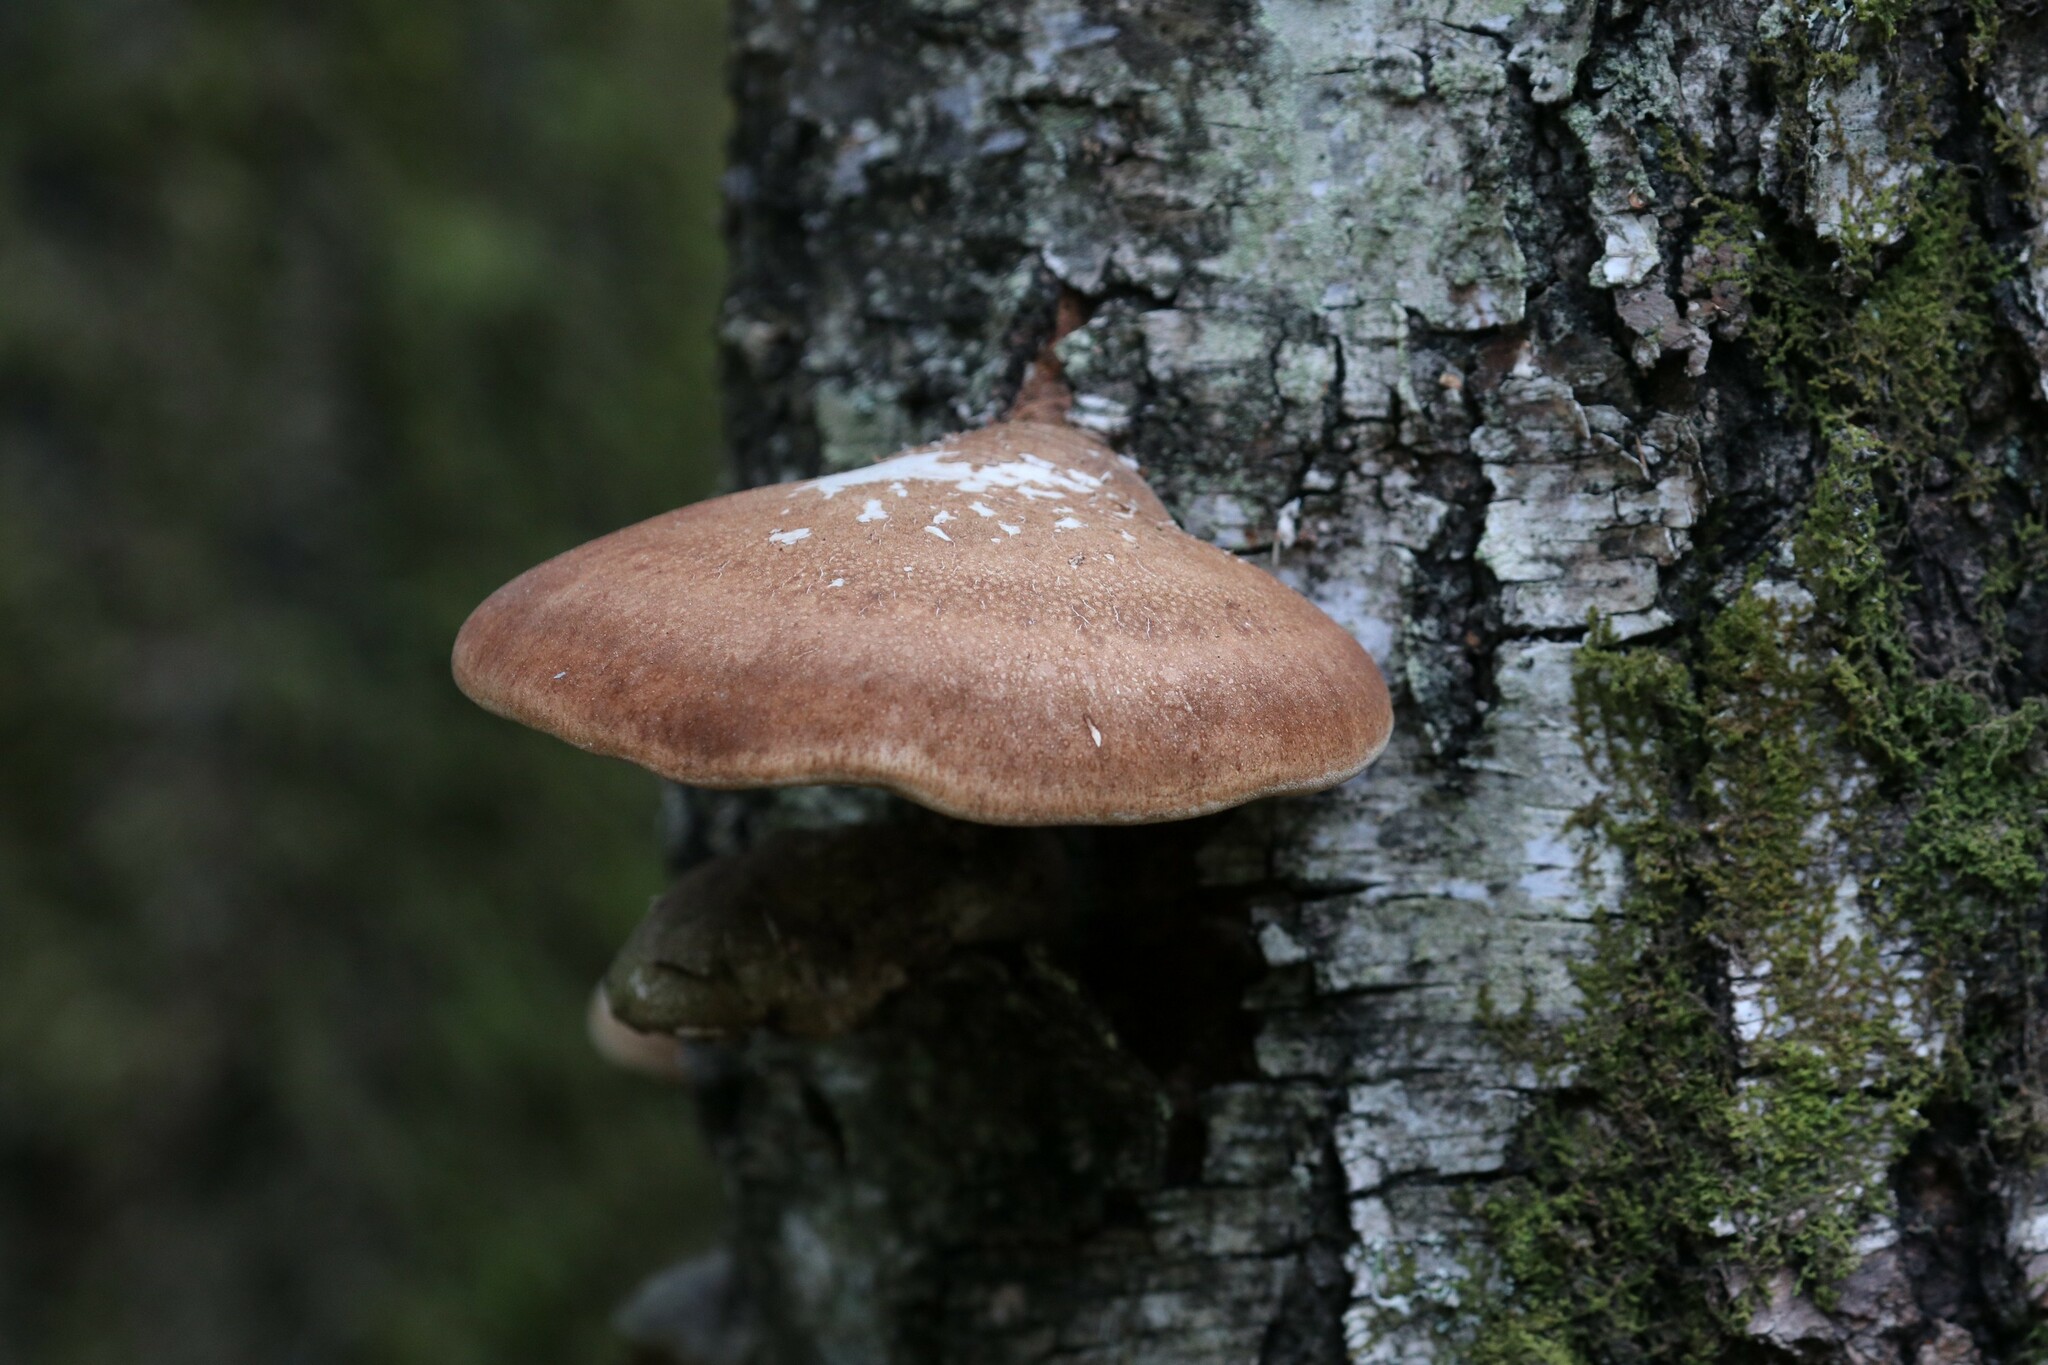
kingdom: Fungi
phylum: Basidiomycota
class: Agaricomycetes
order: Polyporales
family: Fomitopsidaceae
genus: Fomitopsis
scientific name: Fomitopsis betulina
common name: Birch polypore
